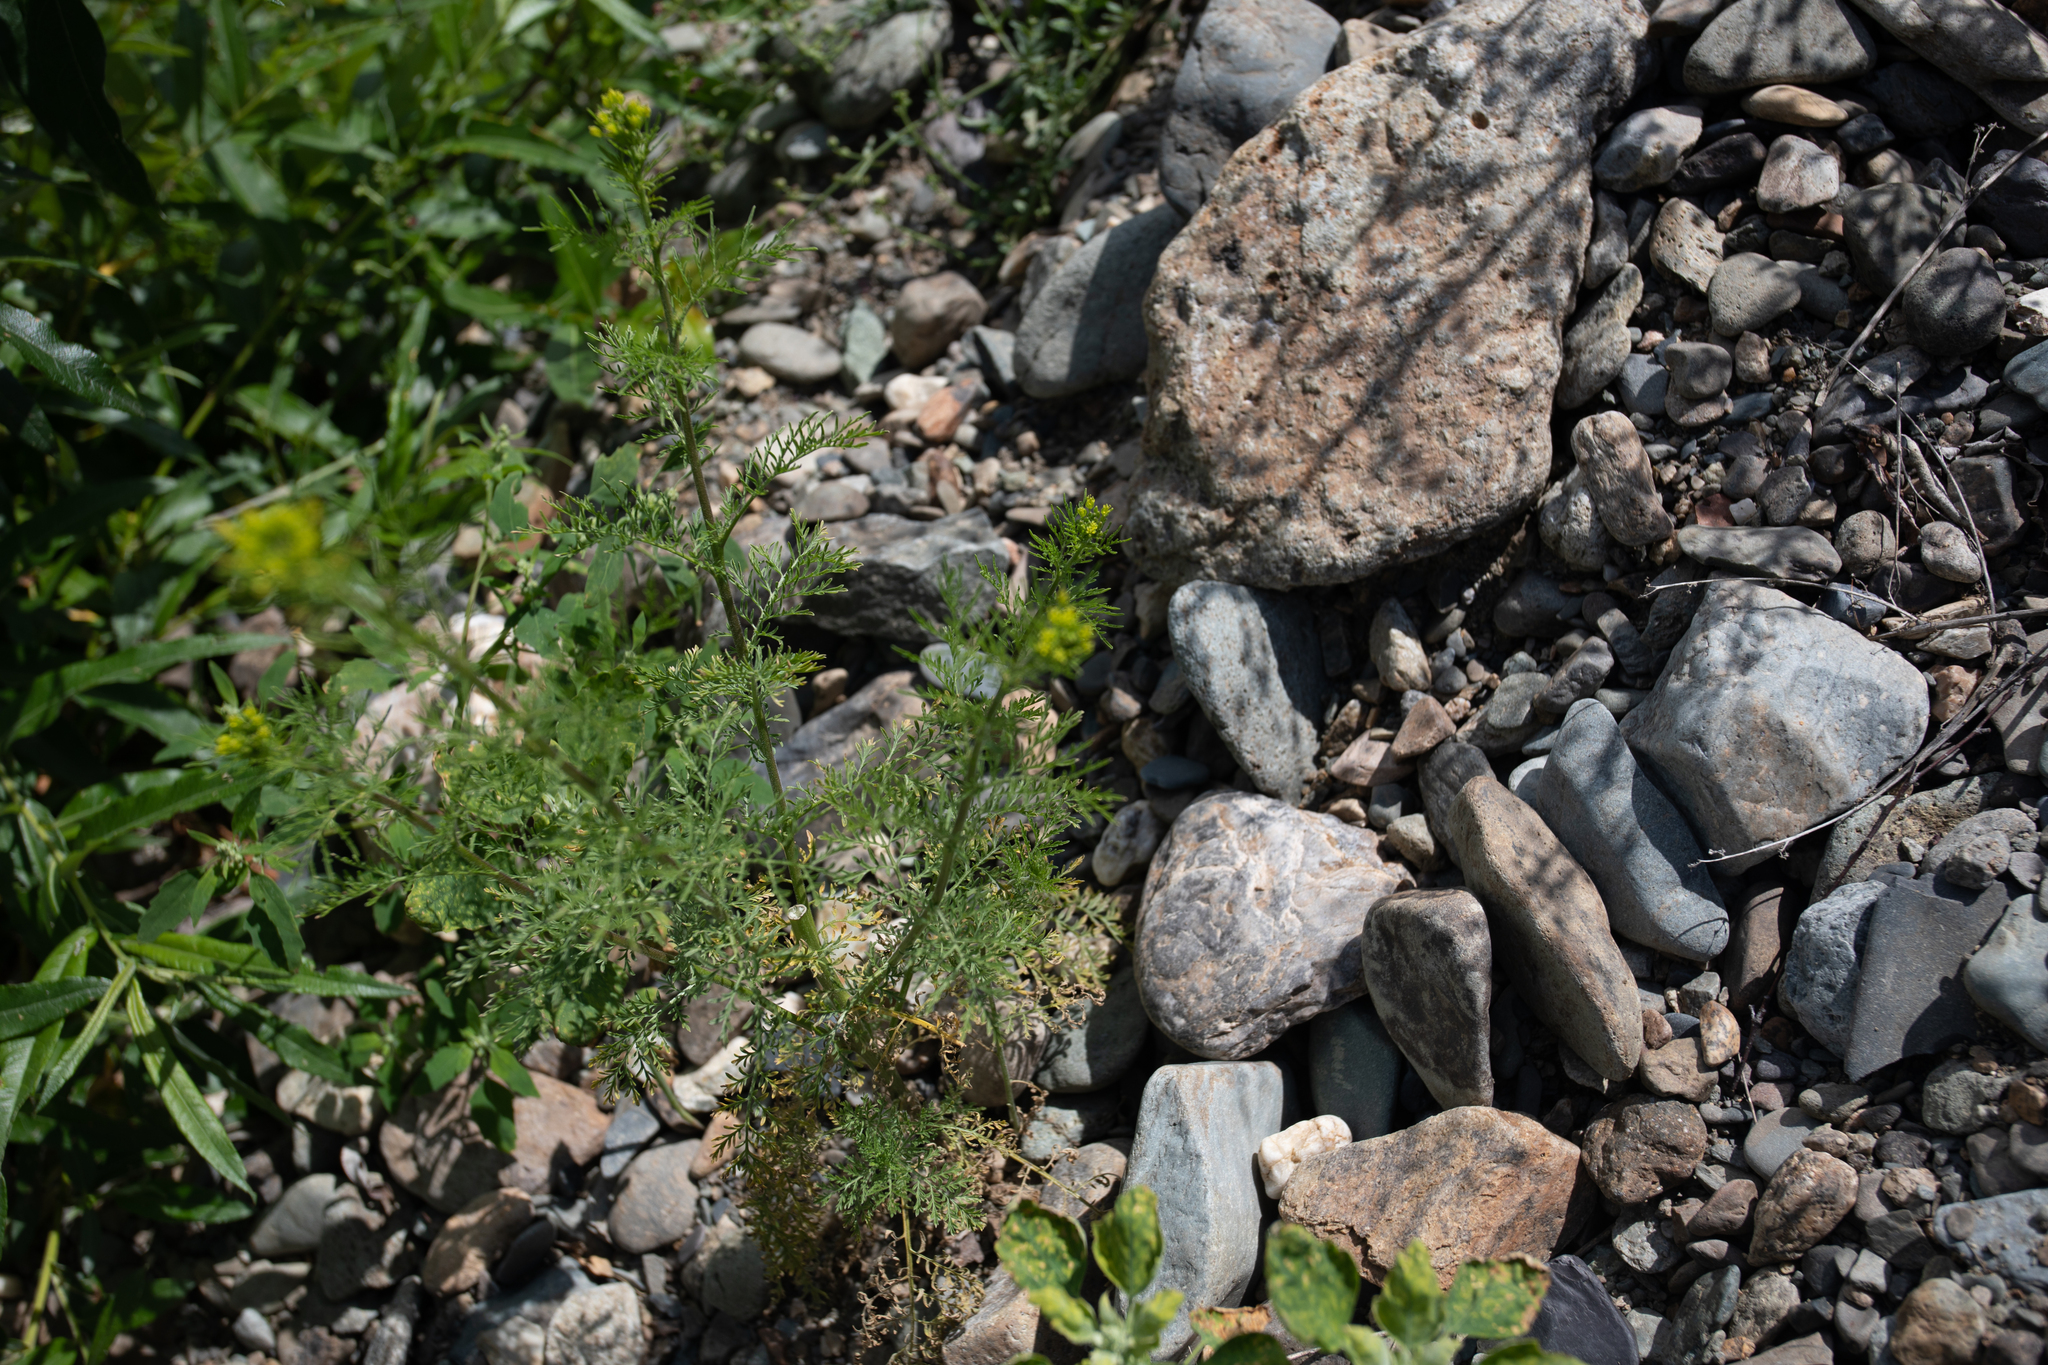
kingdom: Plantae
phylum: Tracheophyta
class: Magnoliopsida
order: Brassicales
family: Brassicaceae
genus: Descurainia
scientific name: Descurainia sophia
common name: Flixweed
